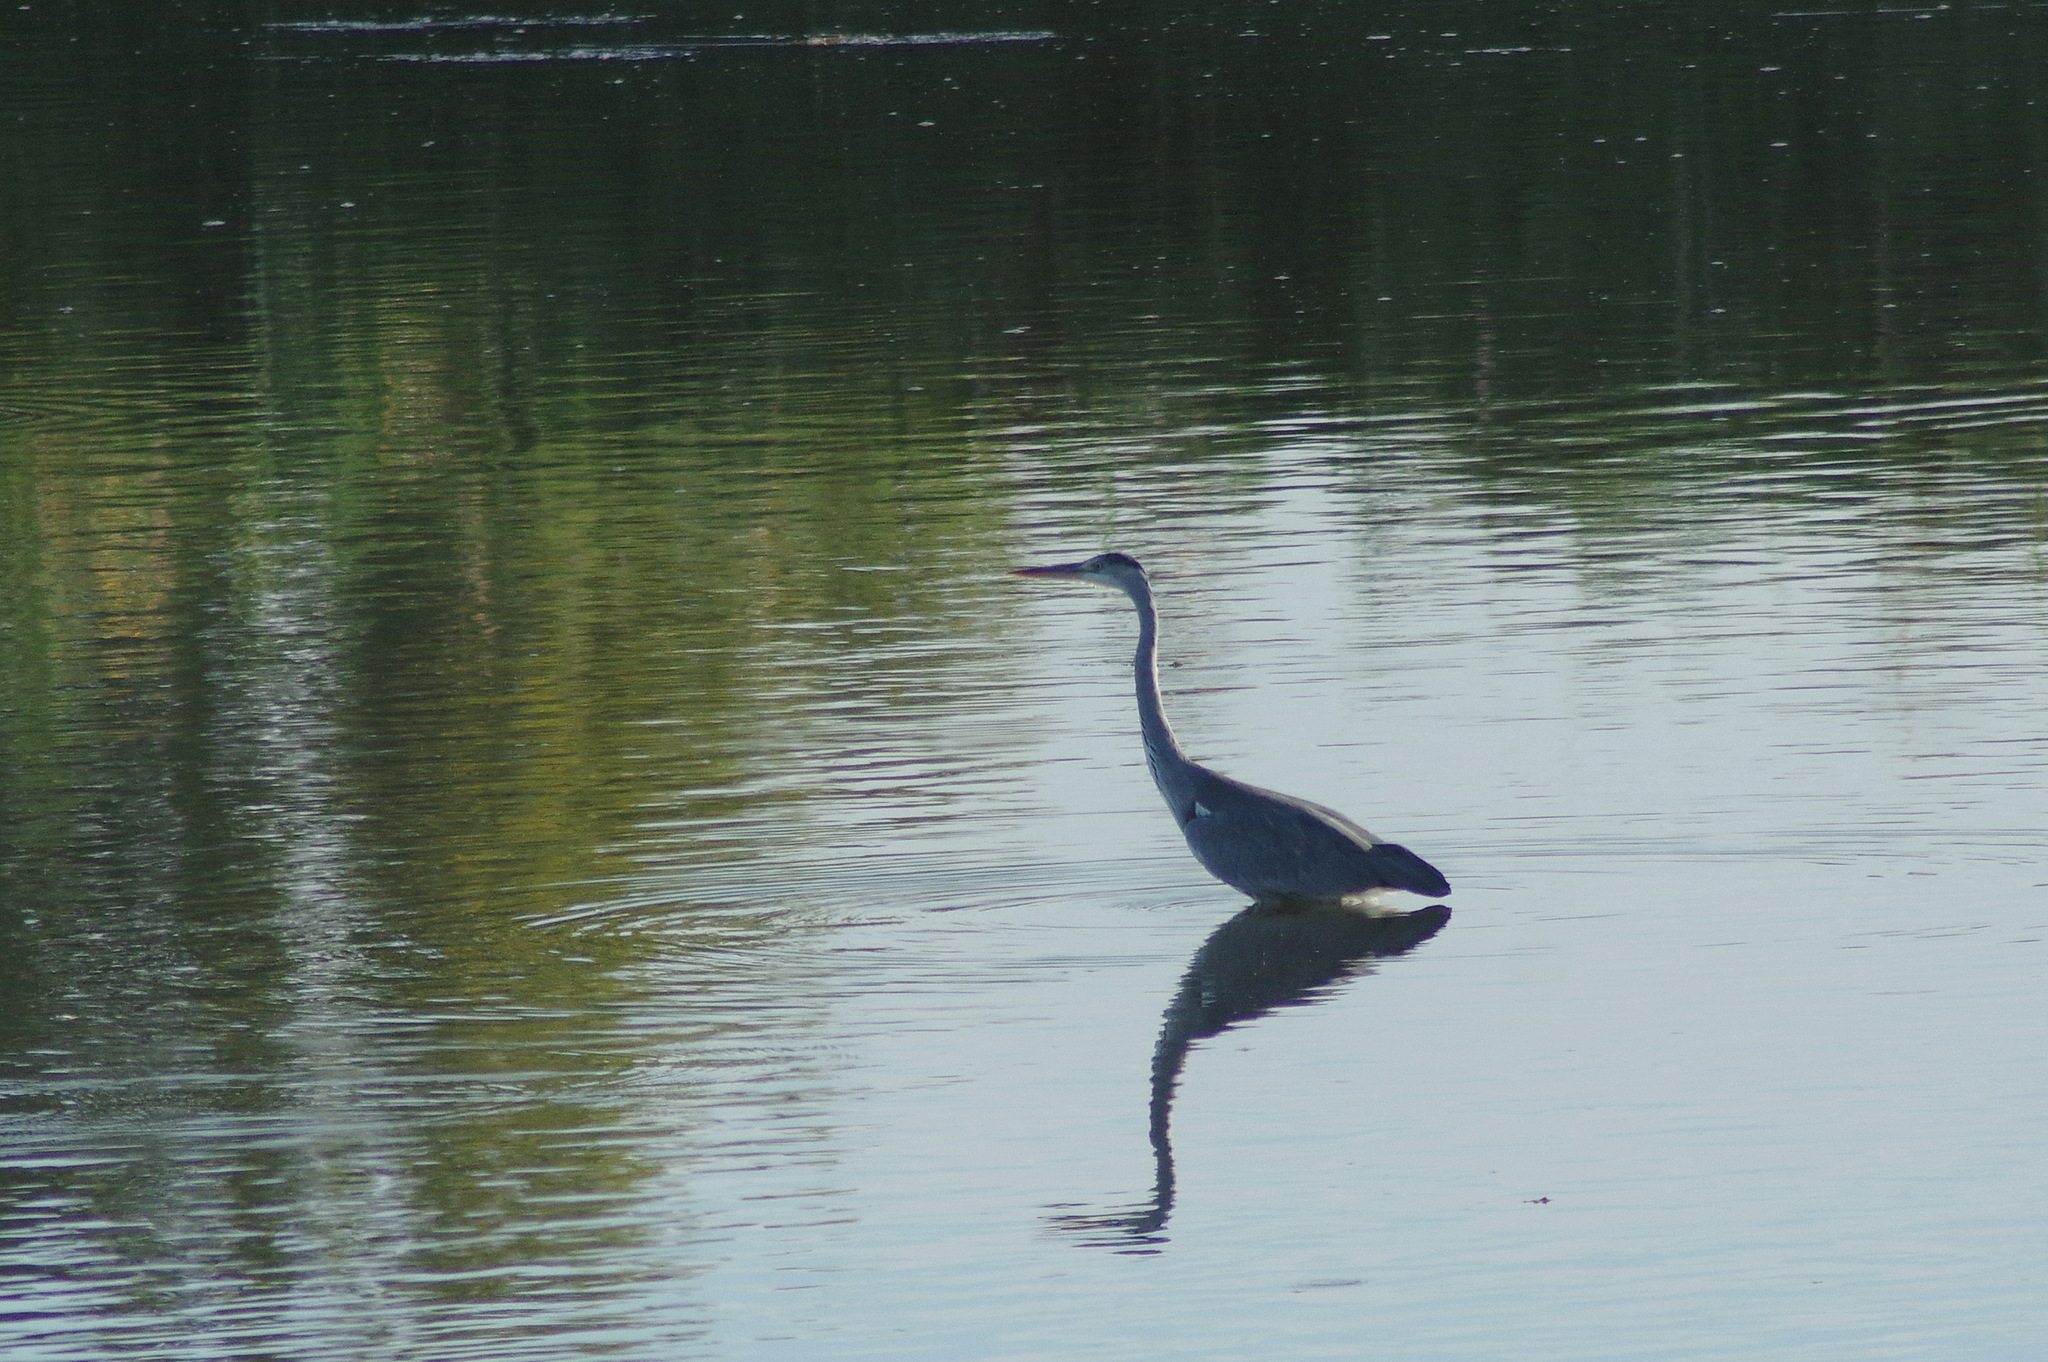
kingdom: Animalia
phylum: Chordata
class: Aves
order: Pelecaniformes
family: Ardeidae
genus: Ardea
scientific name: Ardea cinerea
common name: Grey heron
